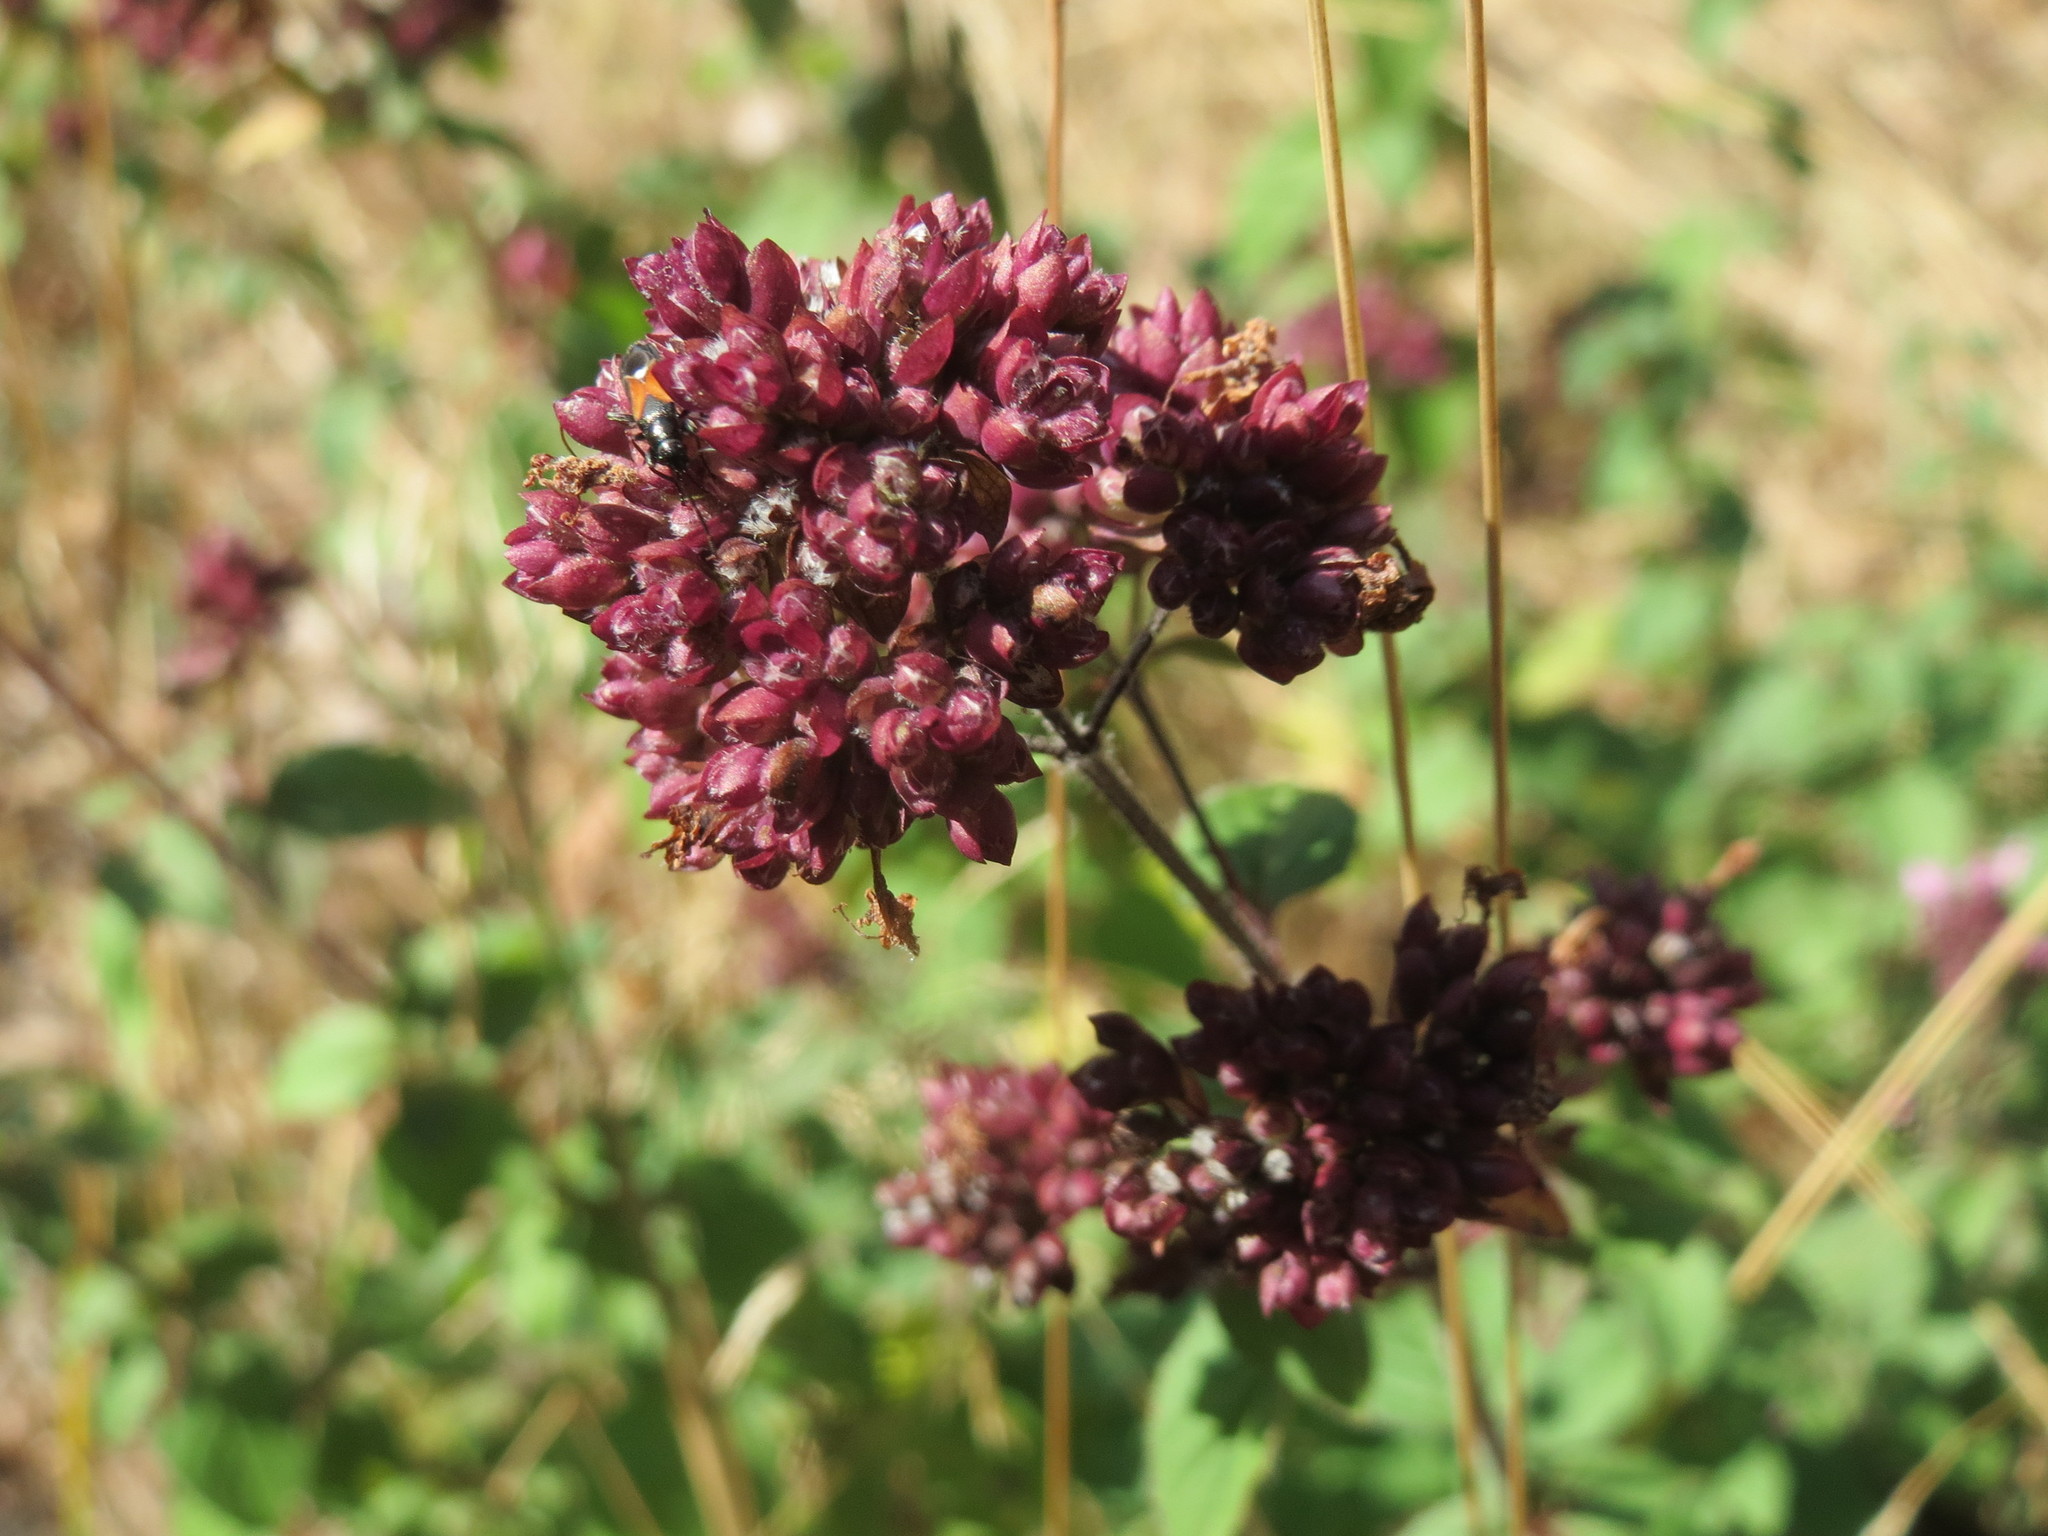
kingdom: Plantae
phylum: Tracheophyta
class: Magnoliopsida
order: Lamiales
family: Lamiaceae
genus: Origanum
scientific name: Origanum vulgare
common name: Wild marjoram
